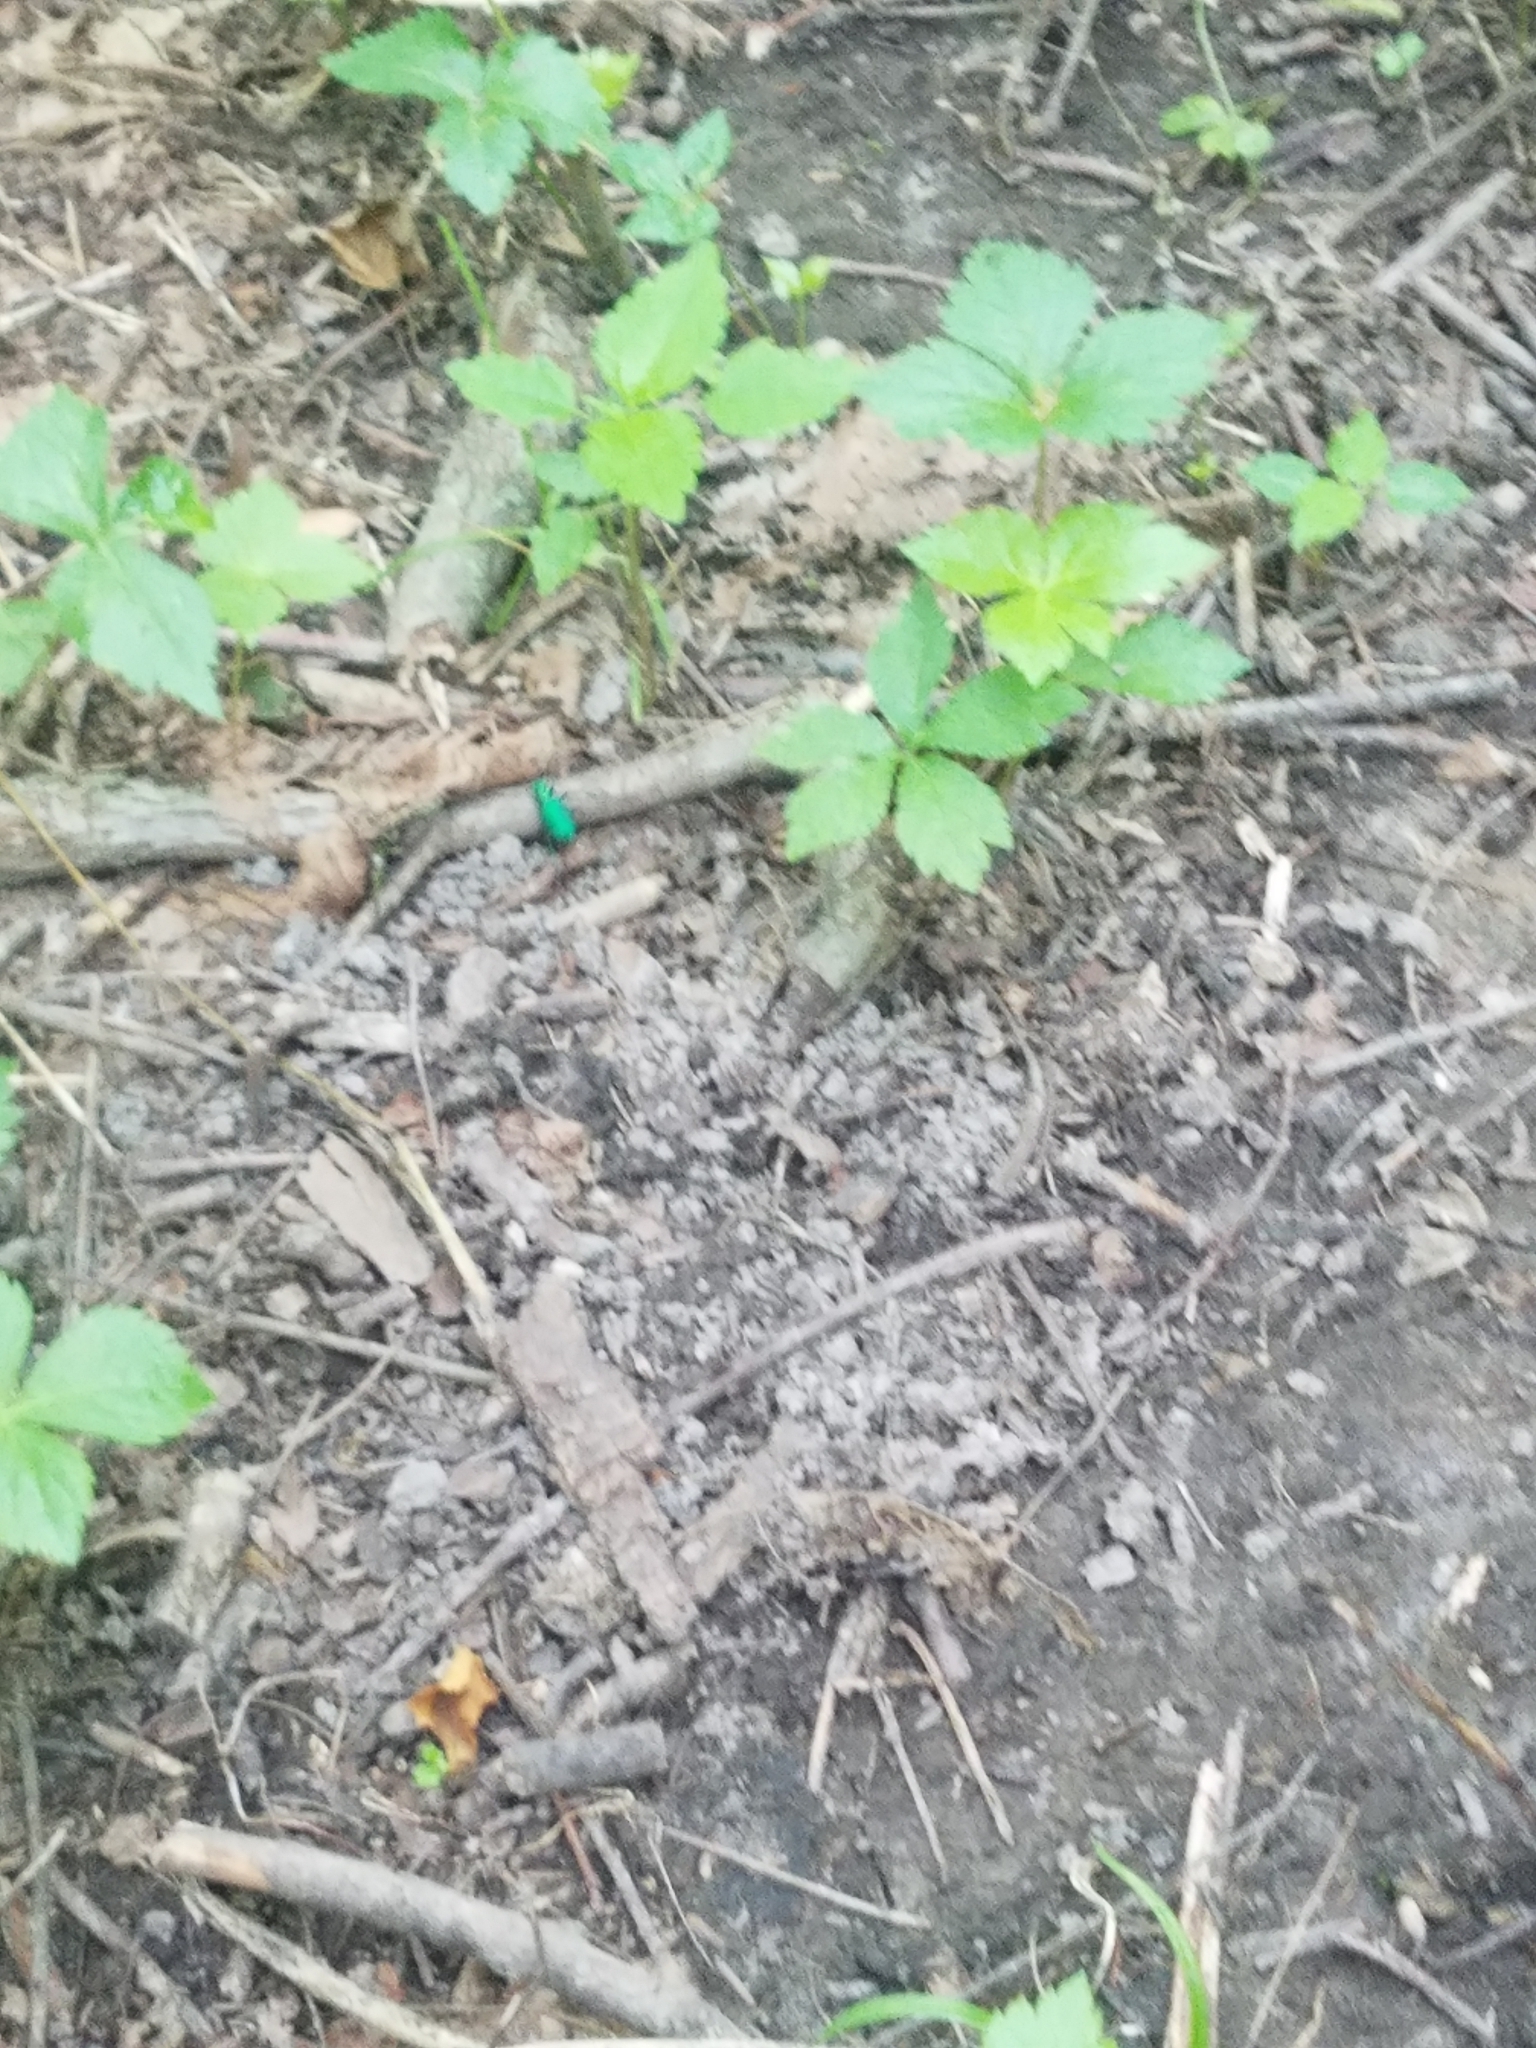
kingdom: Animalia
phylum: Arthropoda
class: Insecta
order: Coleoptera
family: Carabidae
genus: Cicindela
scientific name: Cicindela sexguttata
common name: Six-spotted tiger beetle
